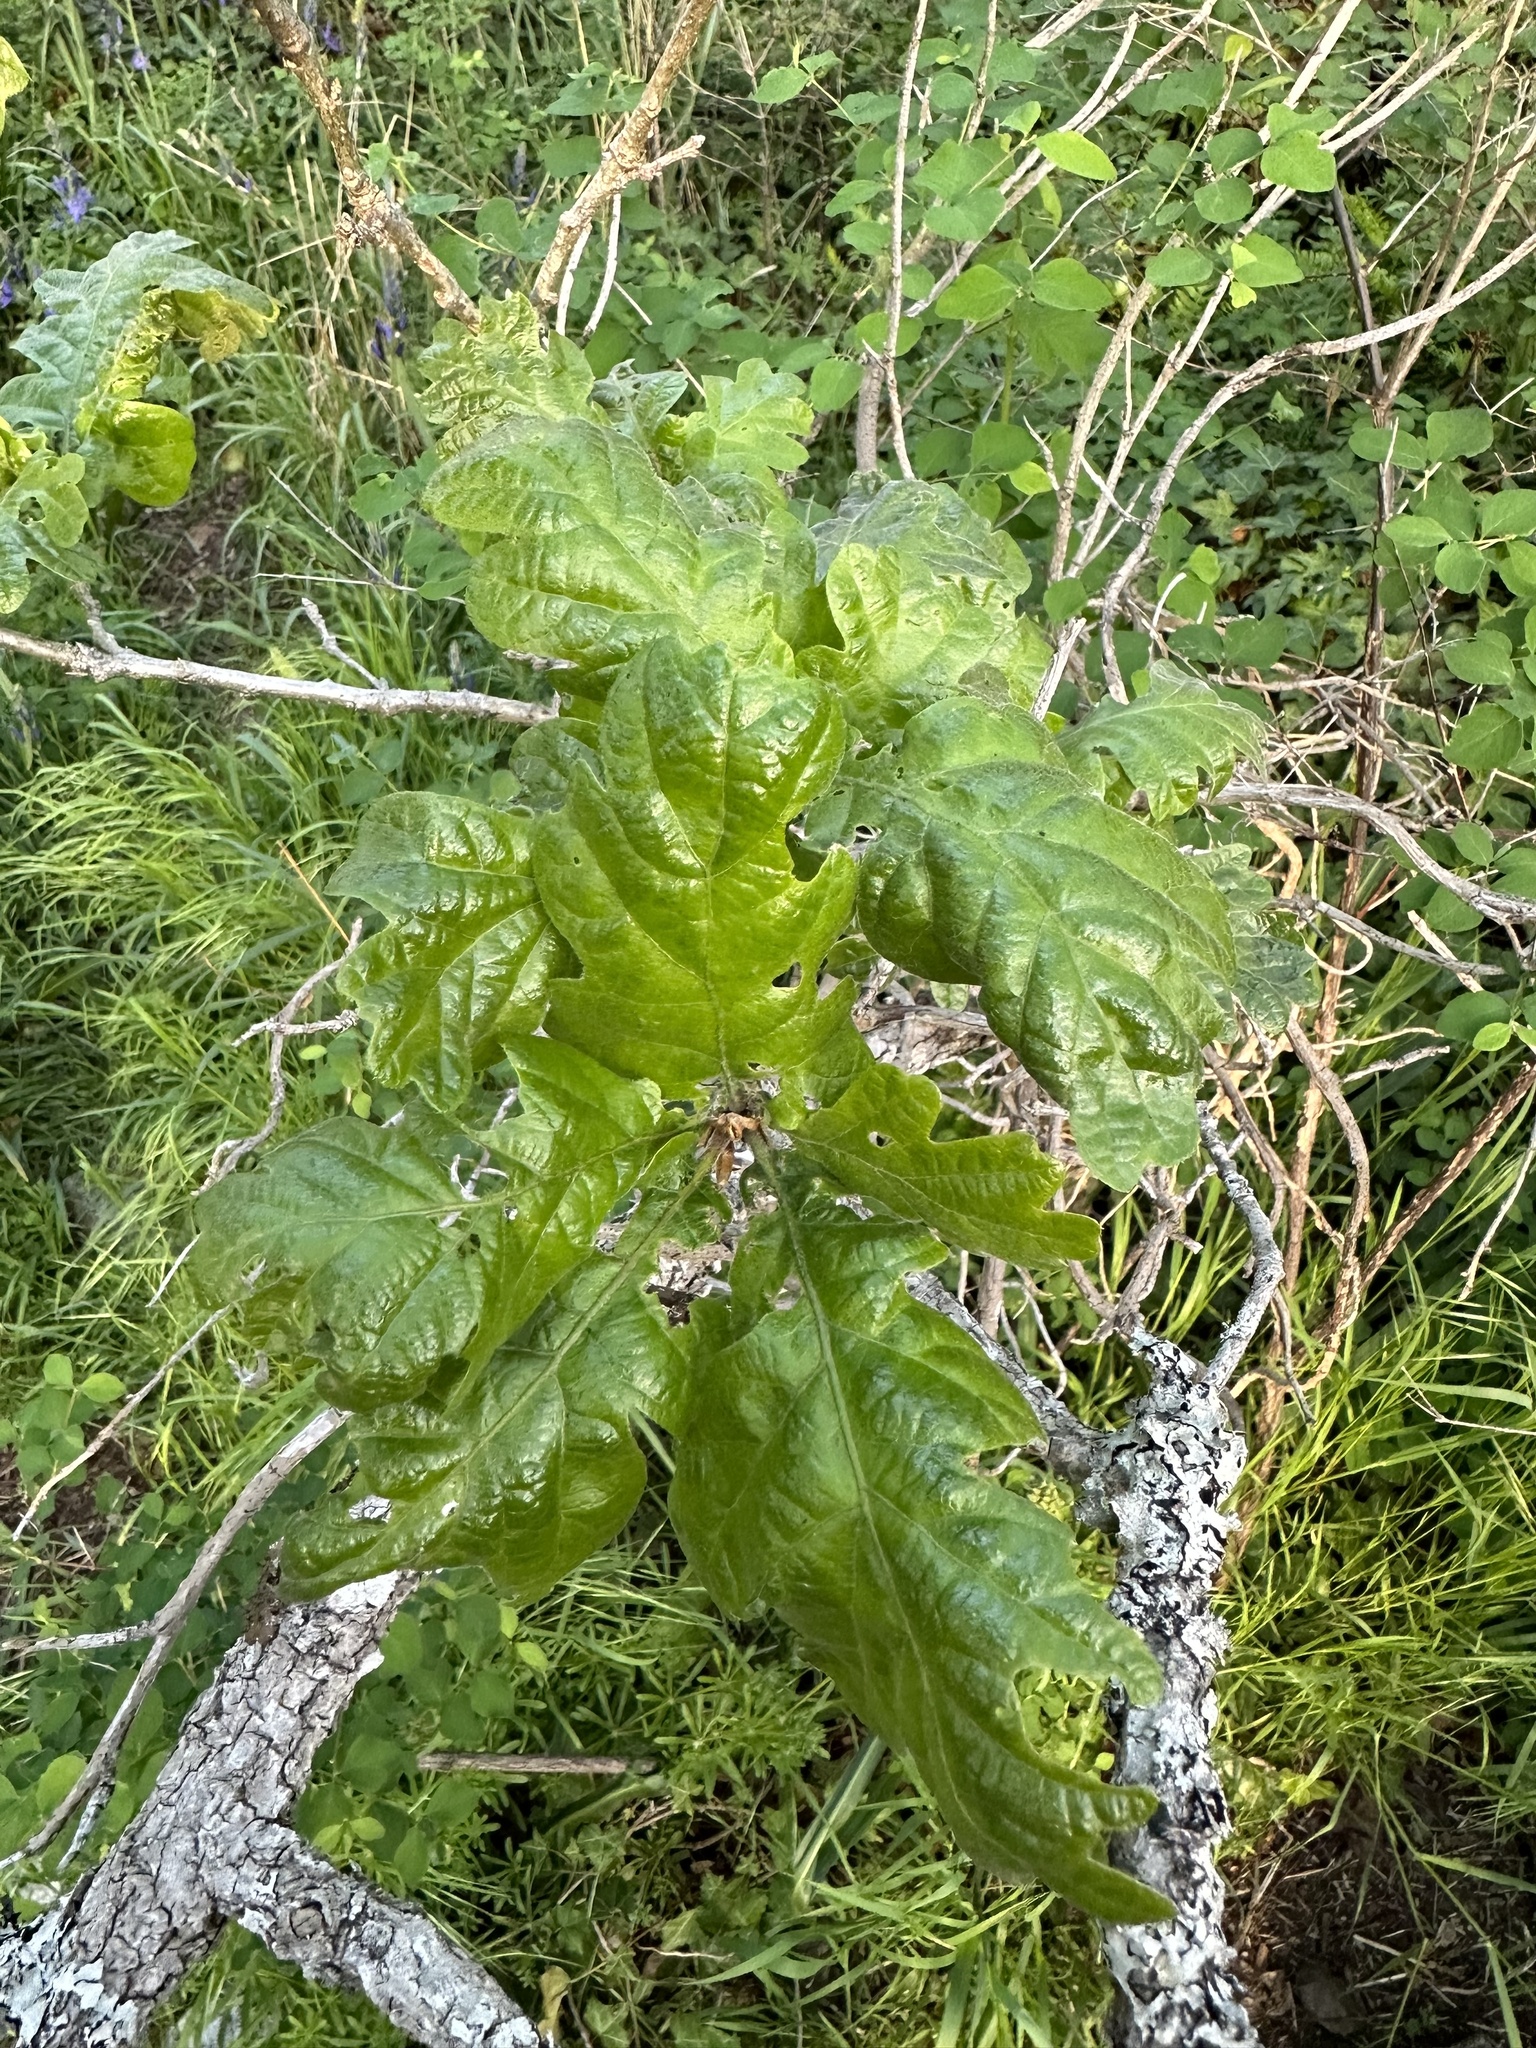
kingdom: Plantae
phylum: Tracheophyta
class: Magnoliopsida
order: Fagales
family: Fagaceae
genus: Quercus
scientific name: Quercus garryana
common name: Garry oak
